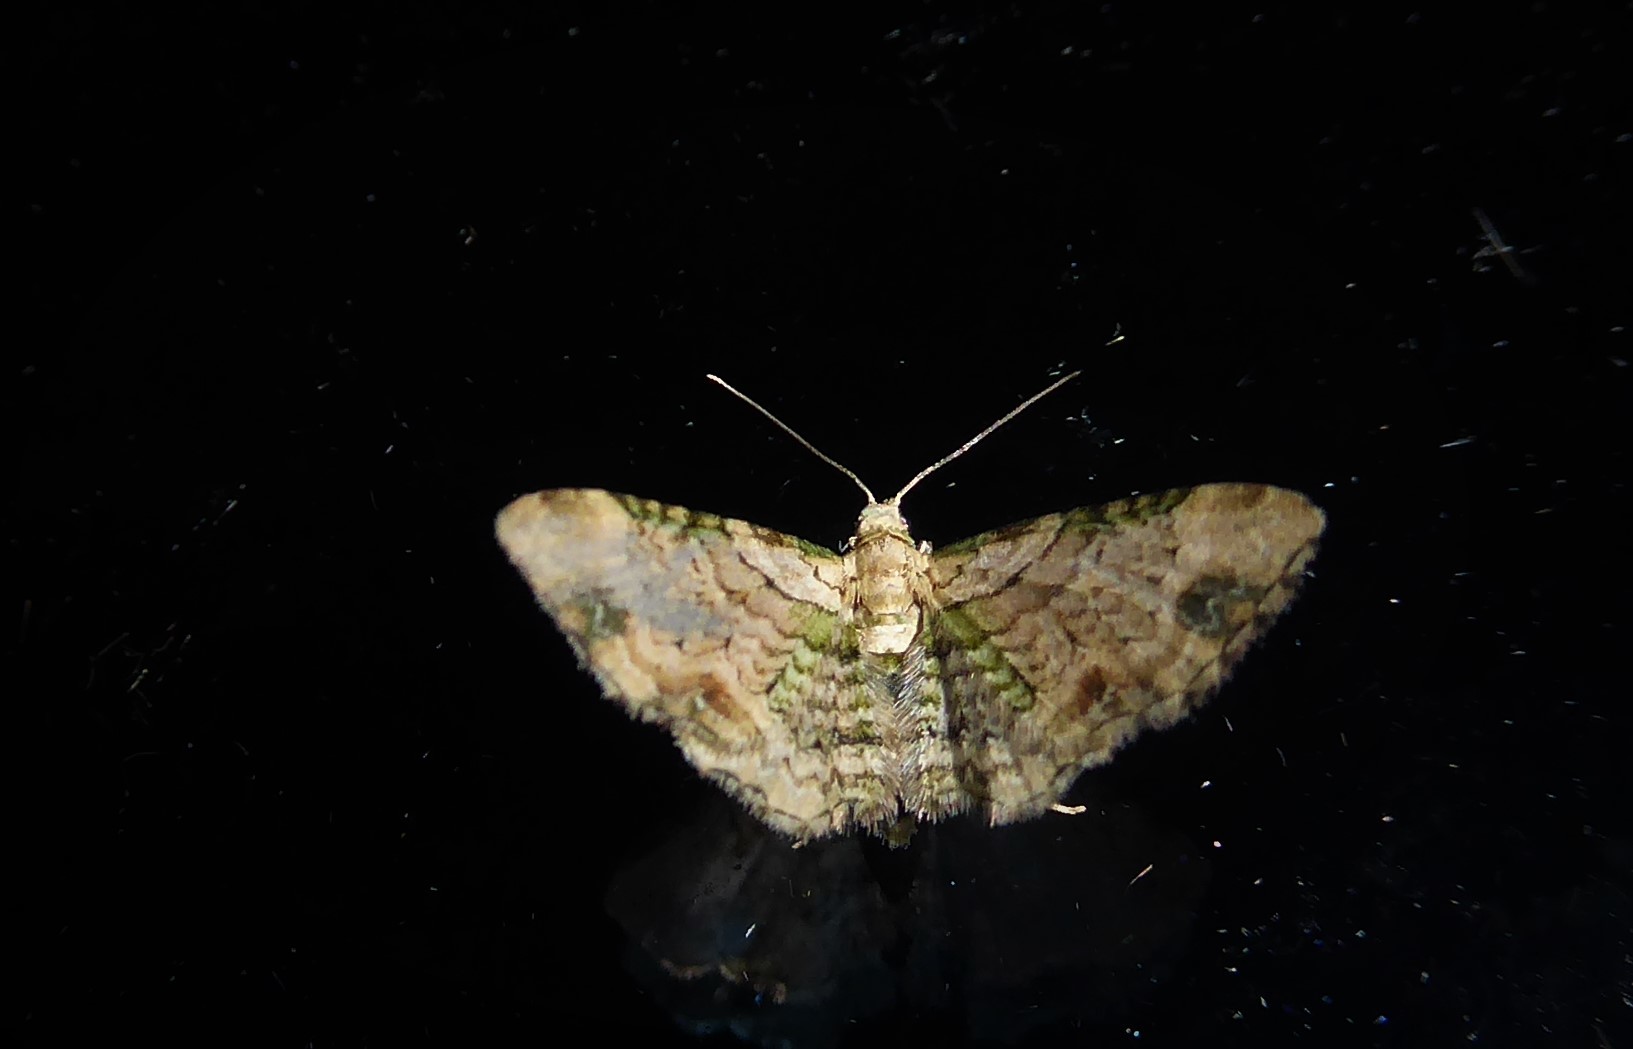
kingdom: Animalia
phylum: Arthropoda
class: Insecta
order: Lepidoptera
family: Geometridae
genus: Chloroclystis
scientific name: Chloroclystis
